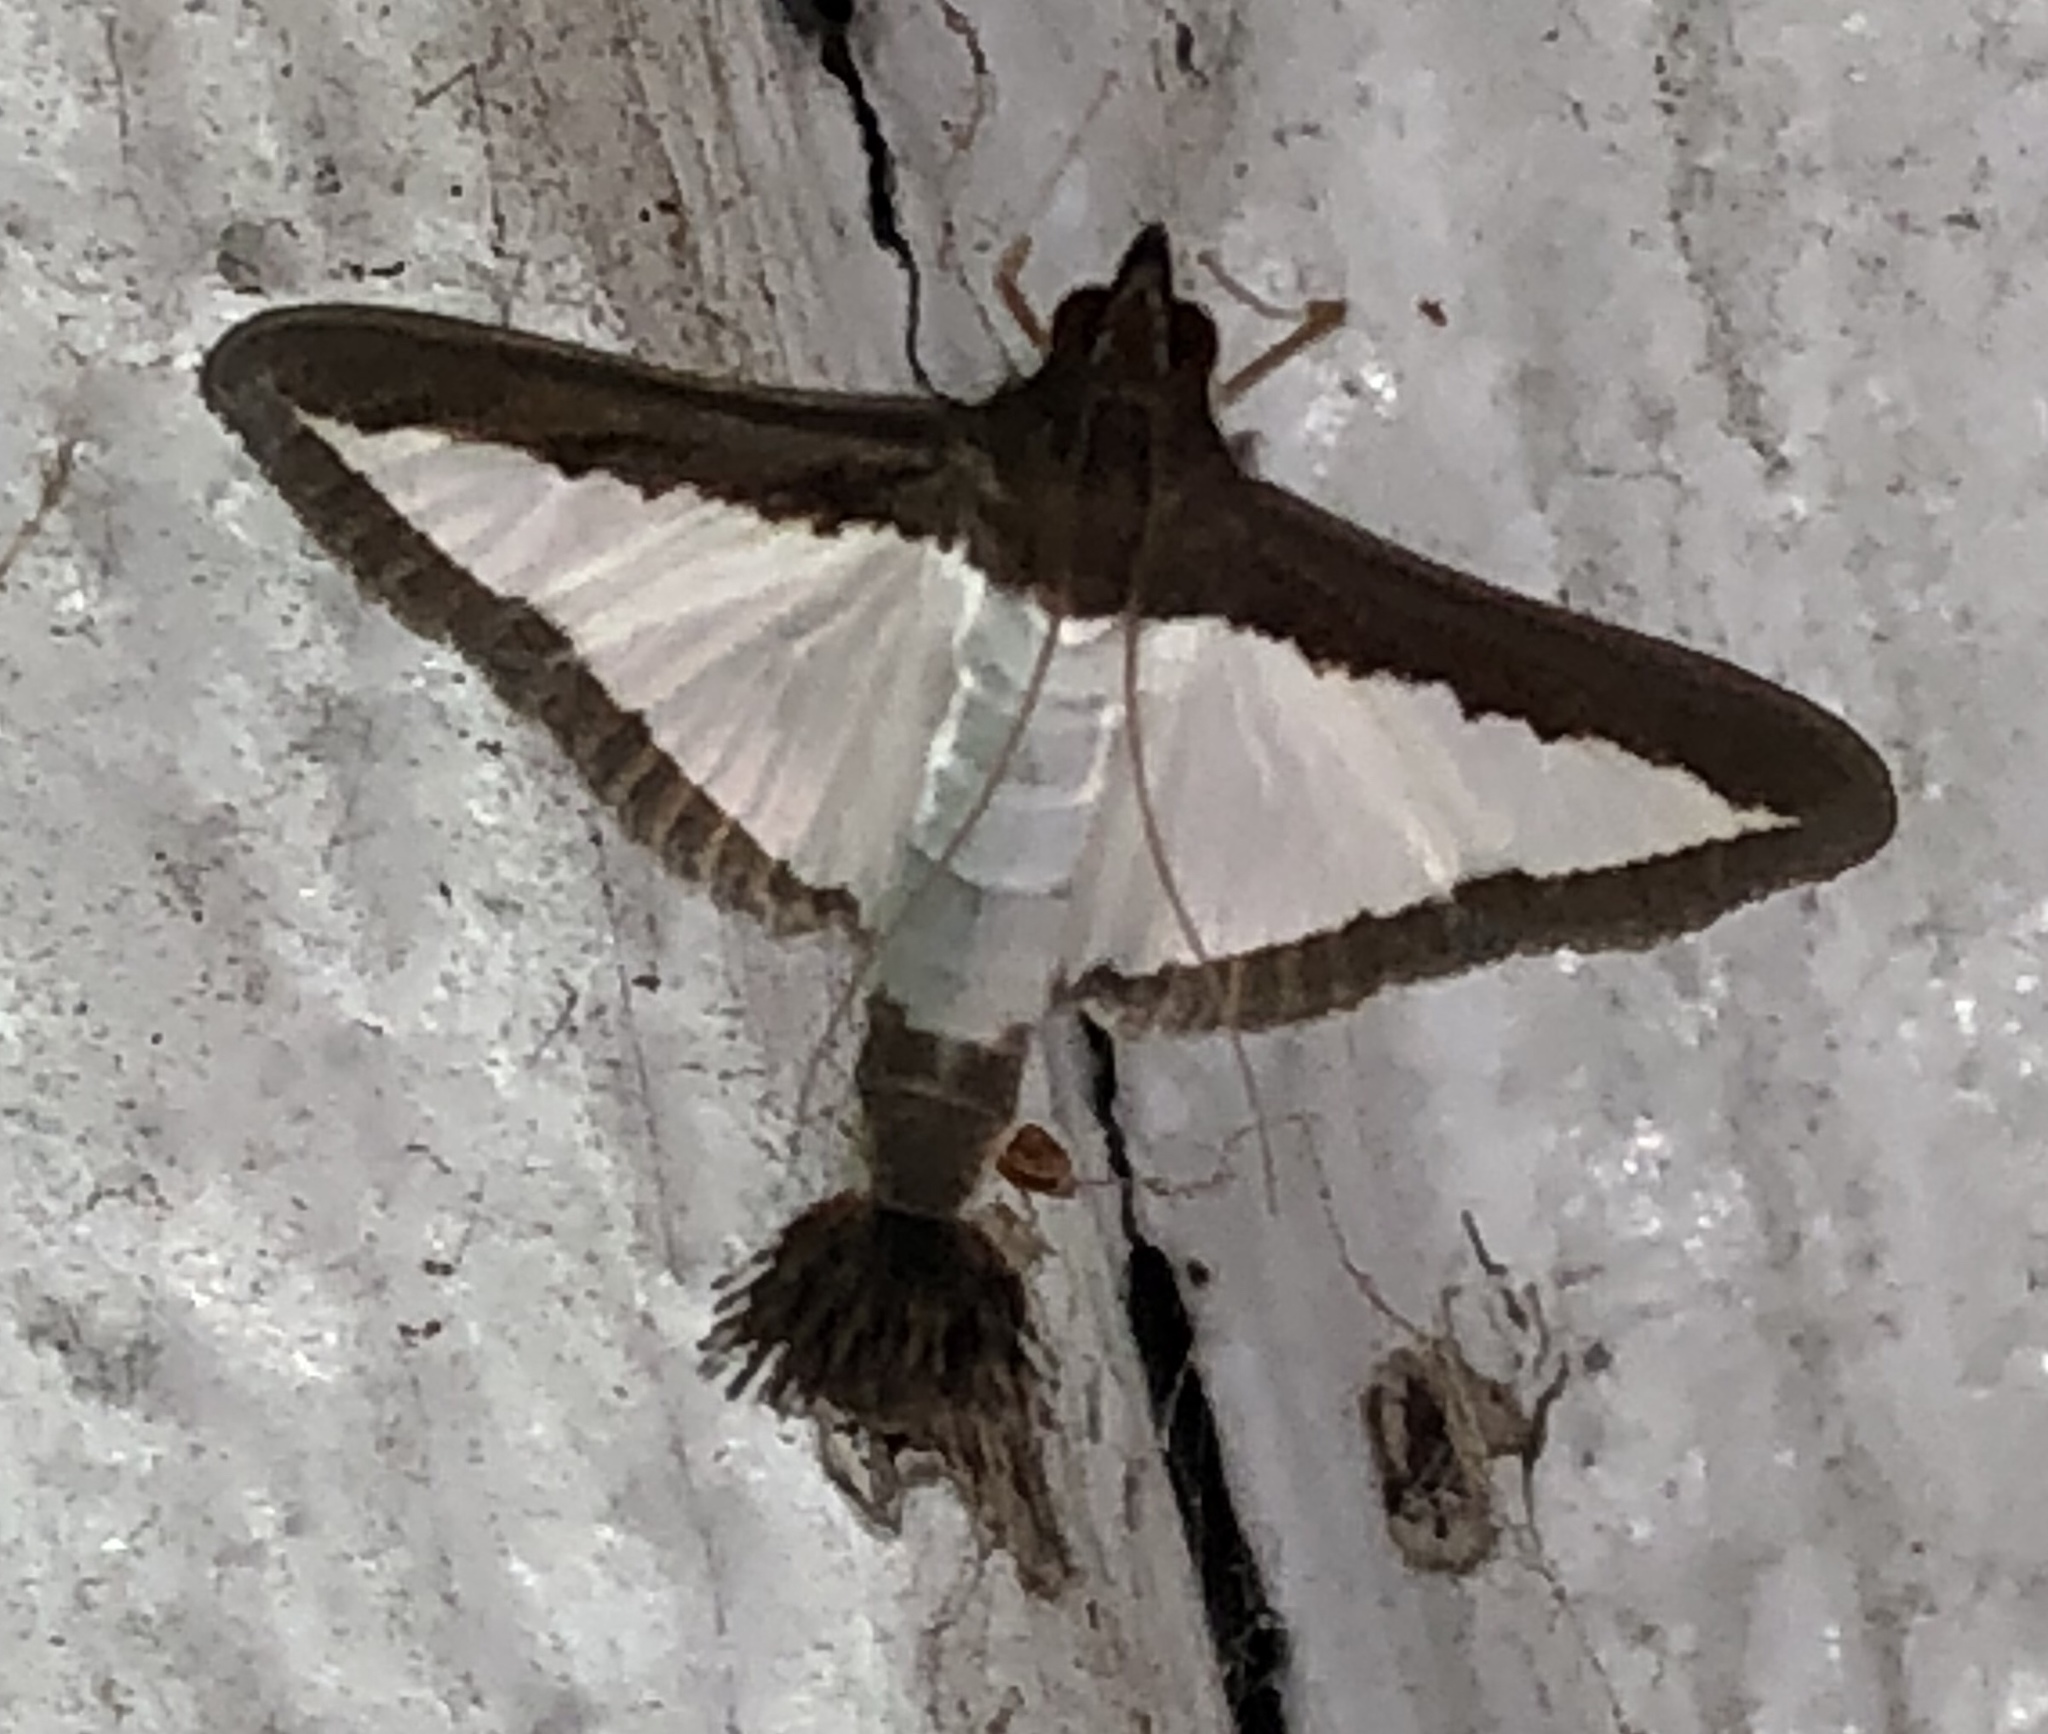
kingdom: Animalia
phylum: Arthropoda
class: Insecta
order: Lepidoptera
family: Crambidae
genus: Diaphania
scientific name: Diaphania hyalinata
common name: Melonworm
